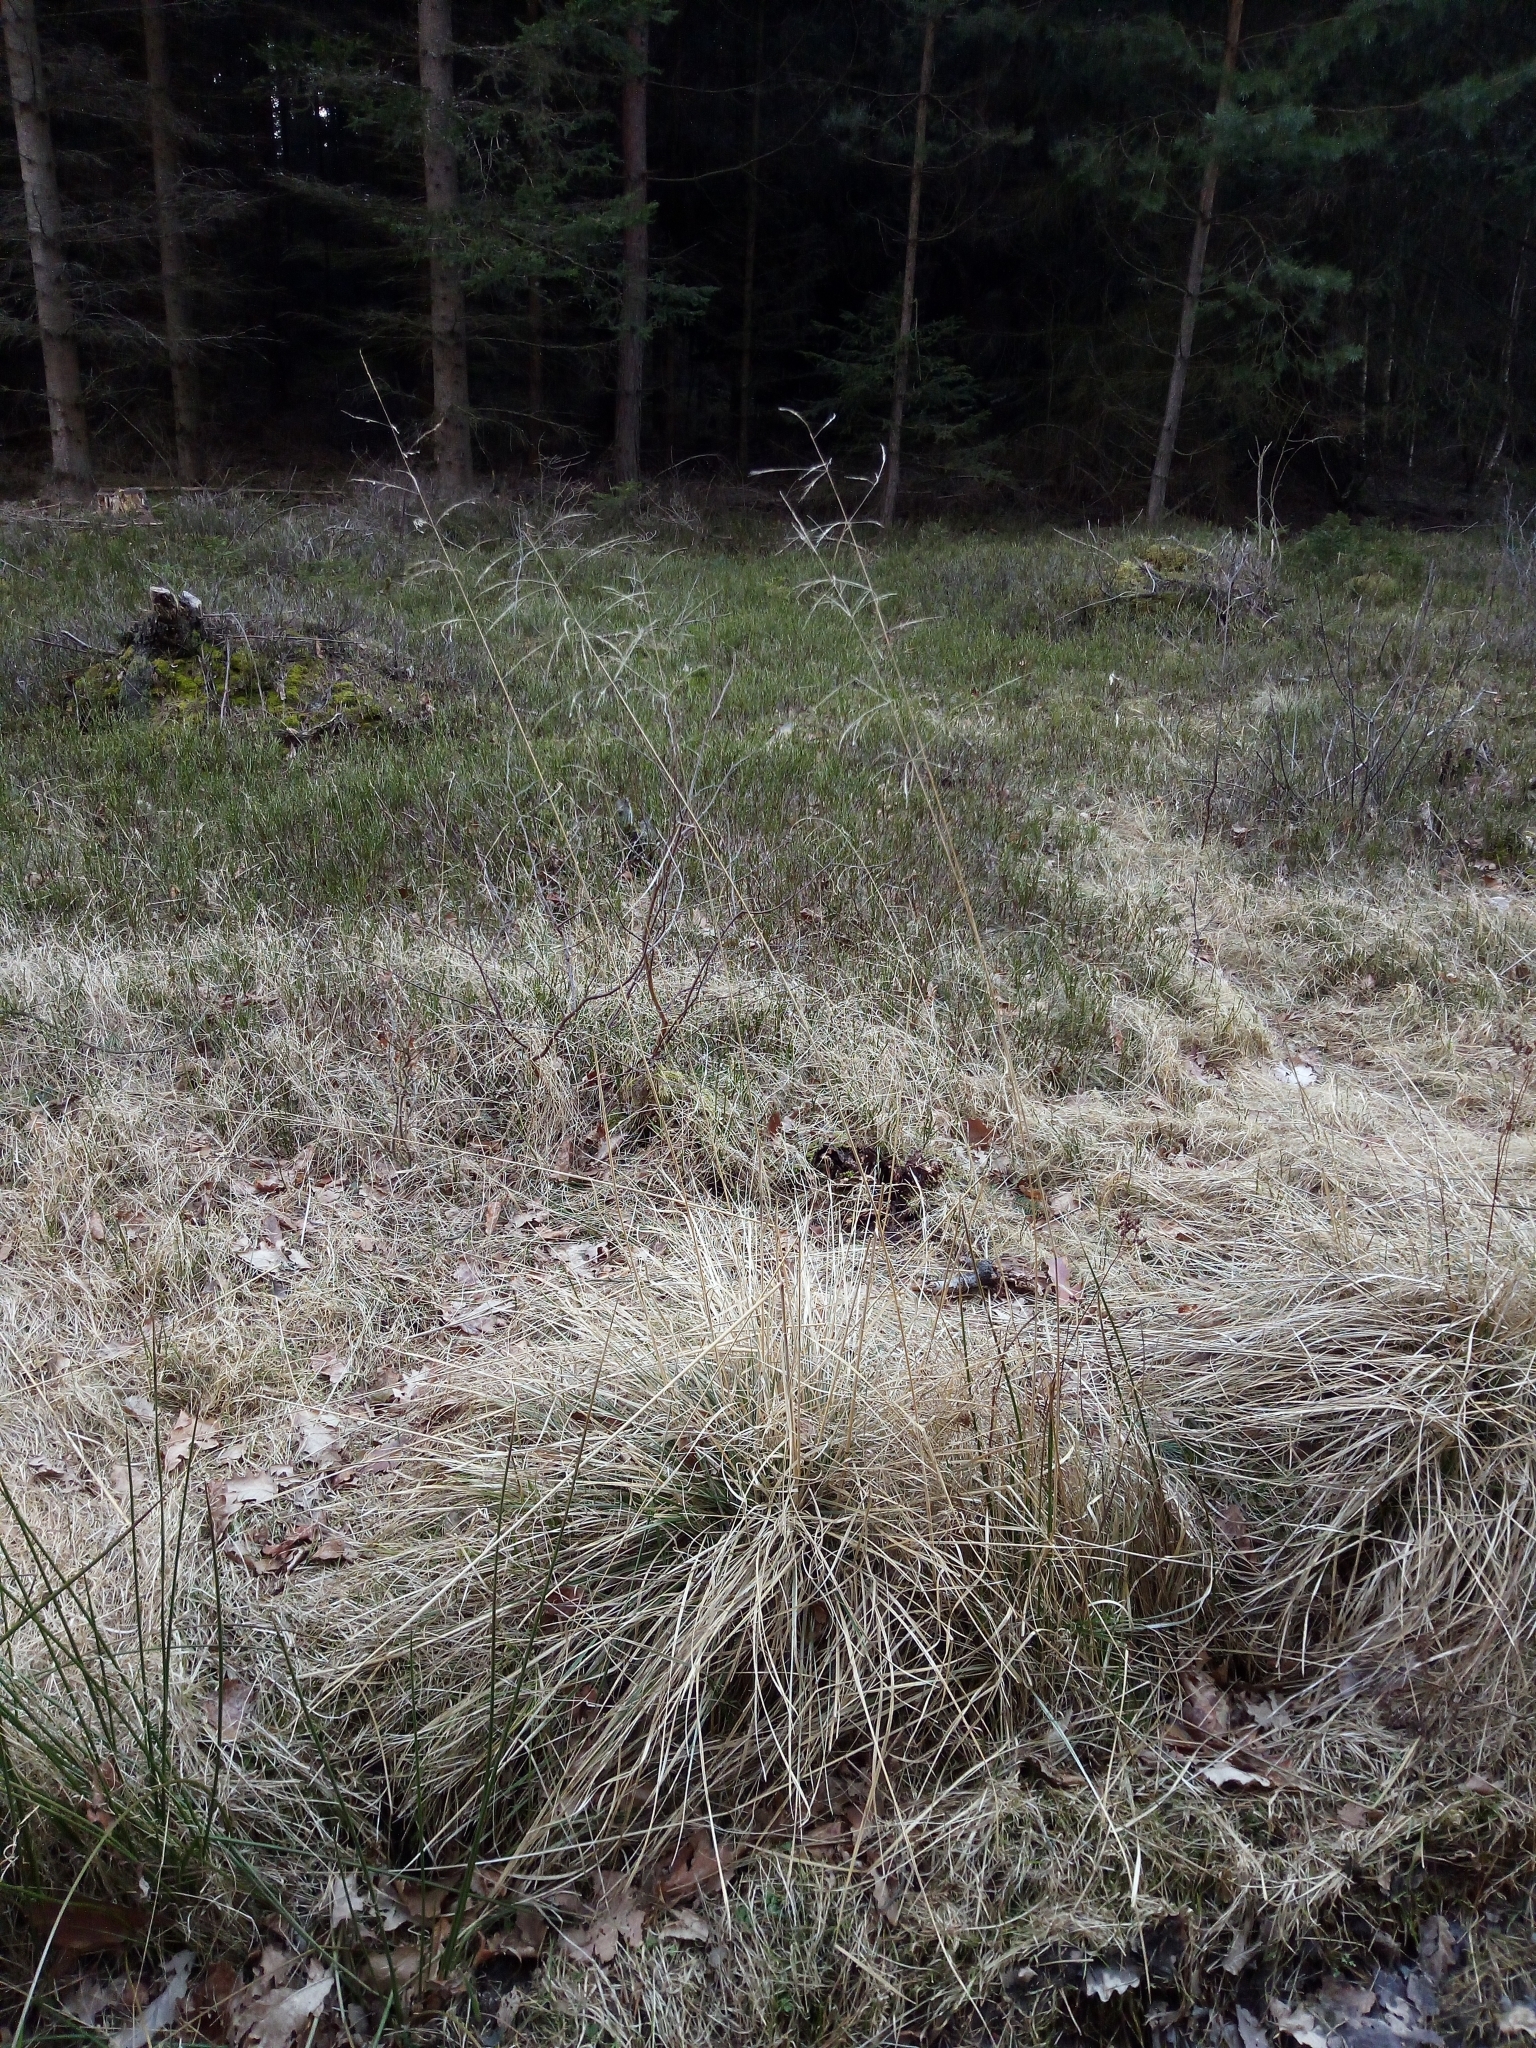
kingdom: Plantae
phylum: Tracheophyta
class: Liliopsida
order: Poales
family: Poaceae
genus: Deschampsia
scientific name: Deschampsia cespitosa
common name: Tufted hair-grass
